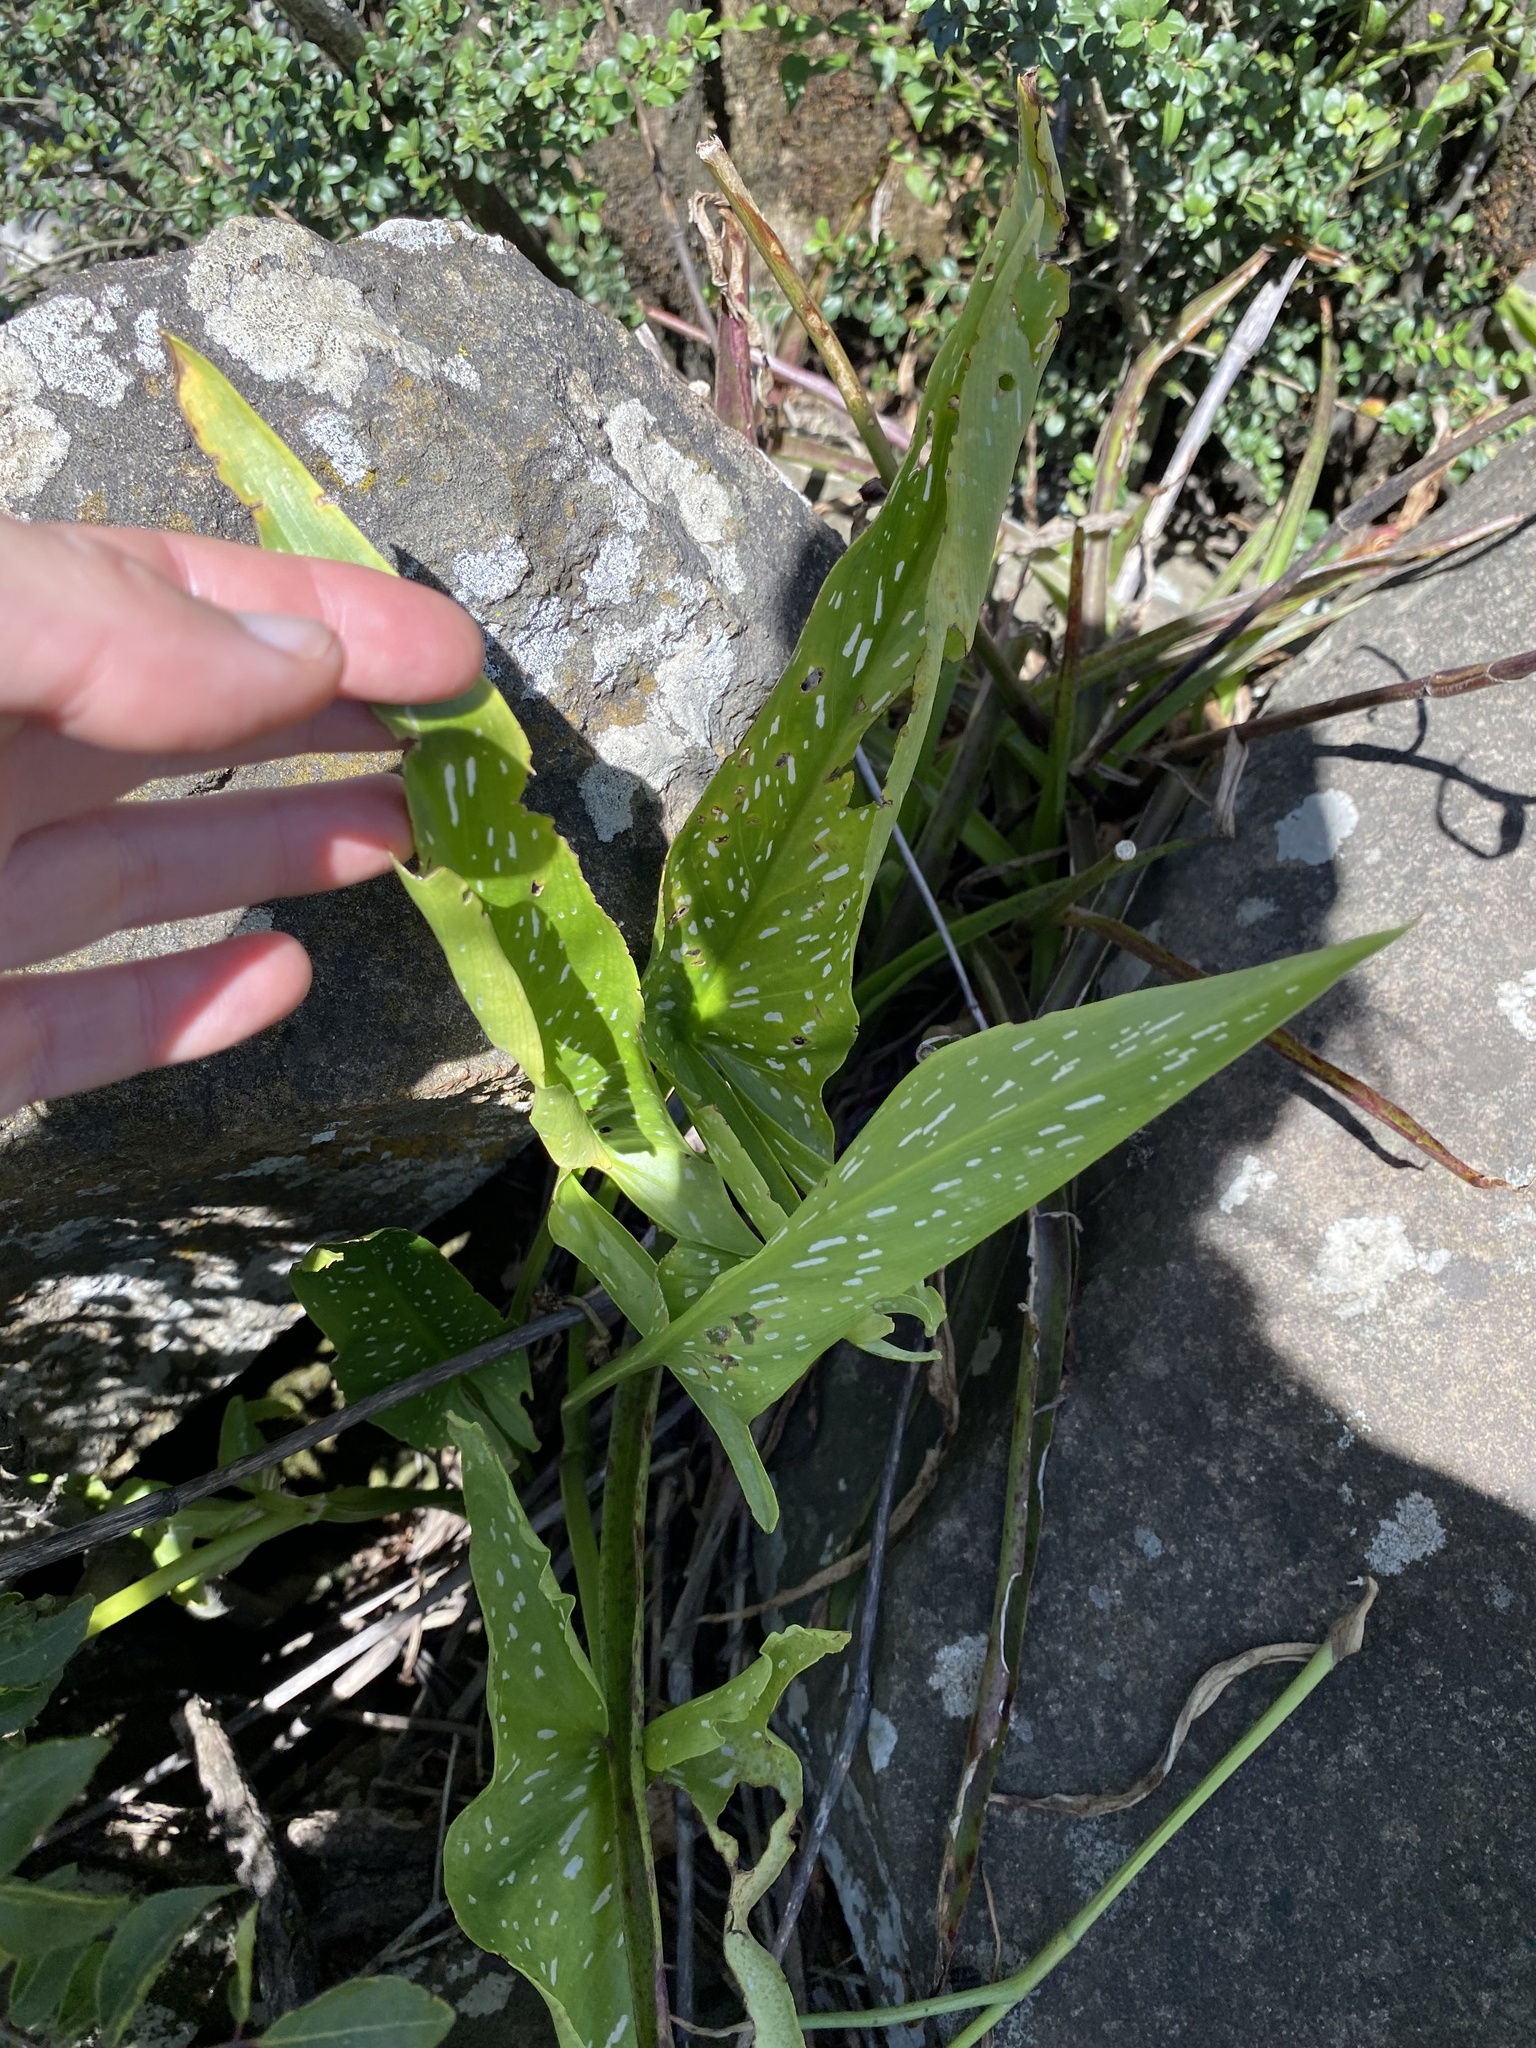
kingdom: Plantae
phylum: Tracheophyta
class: Liliopsida
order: Alismatales
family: Araceae
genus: Zantedeschia
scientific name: Zantedeschia albomaculata
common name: Spotted calla lily
